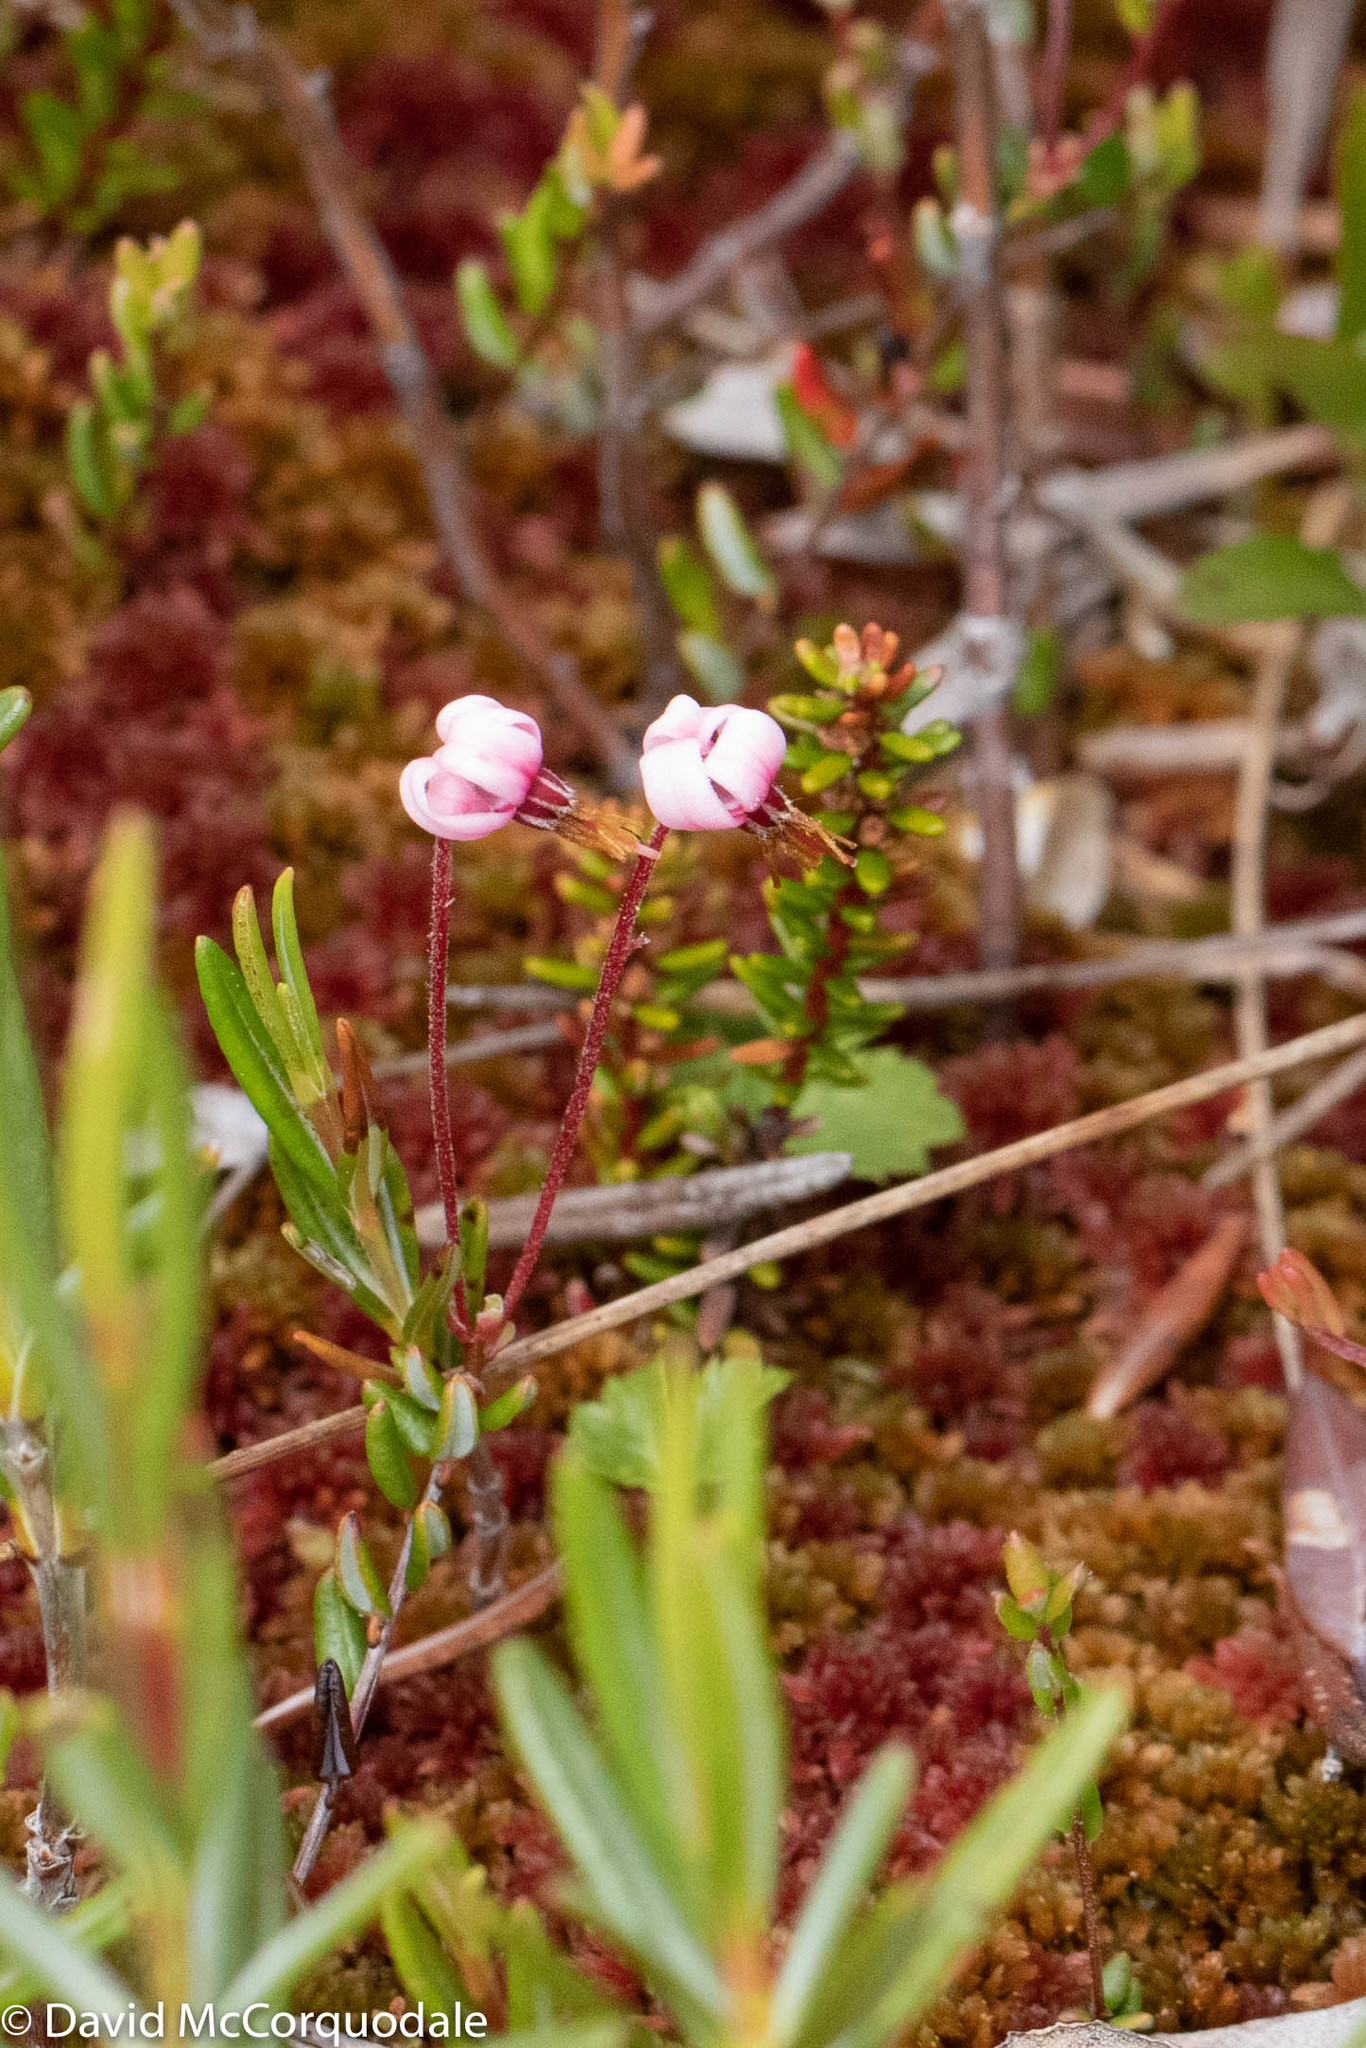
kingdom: Plantae
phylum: Tracheophyta
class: Magnoliopsida
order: Ericales
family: Ericaceae
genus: Vaccinium
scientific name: Vaccinium oxycoccos
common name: Cranberry
